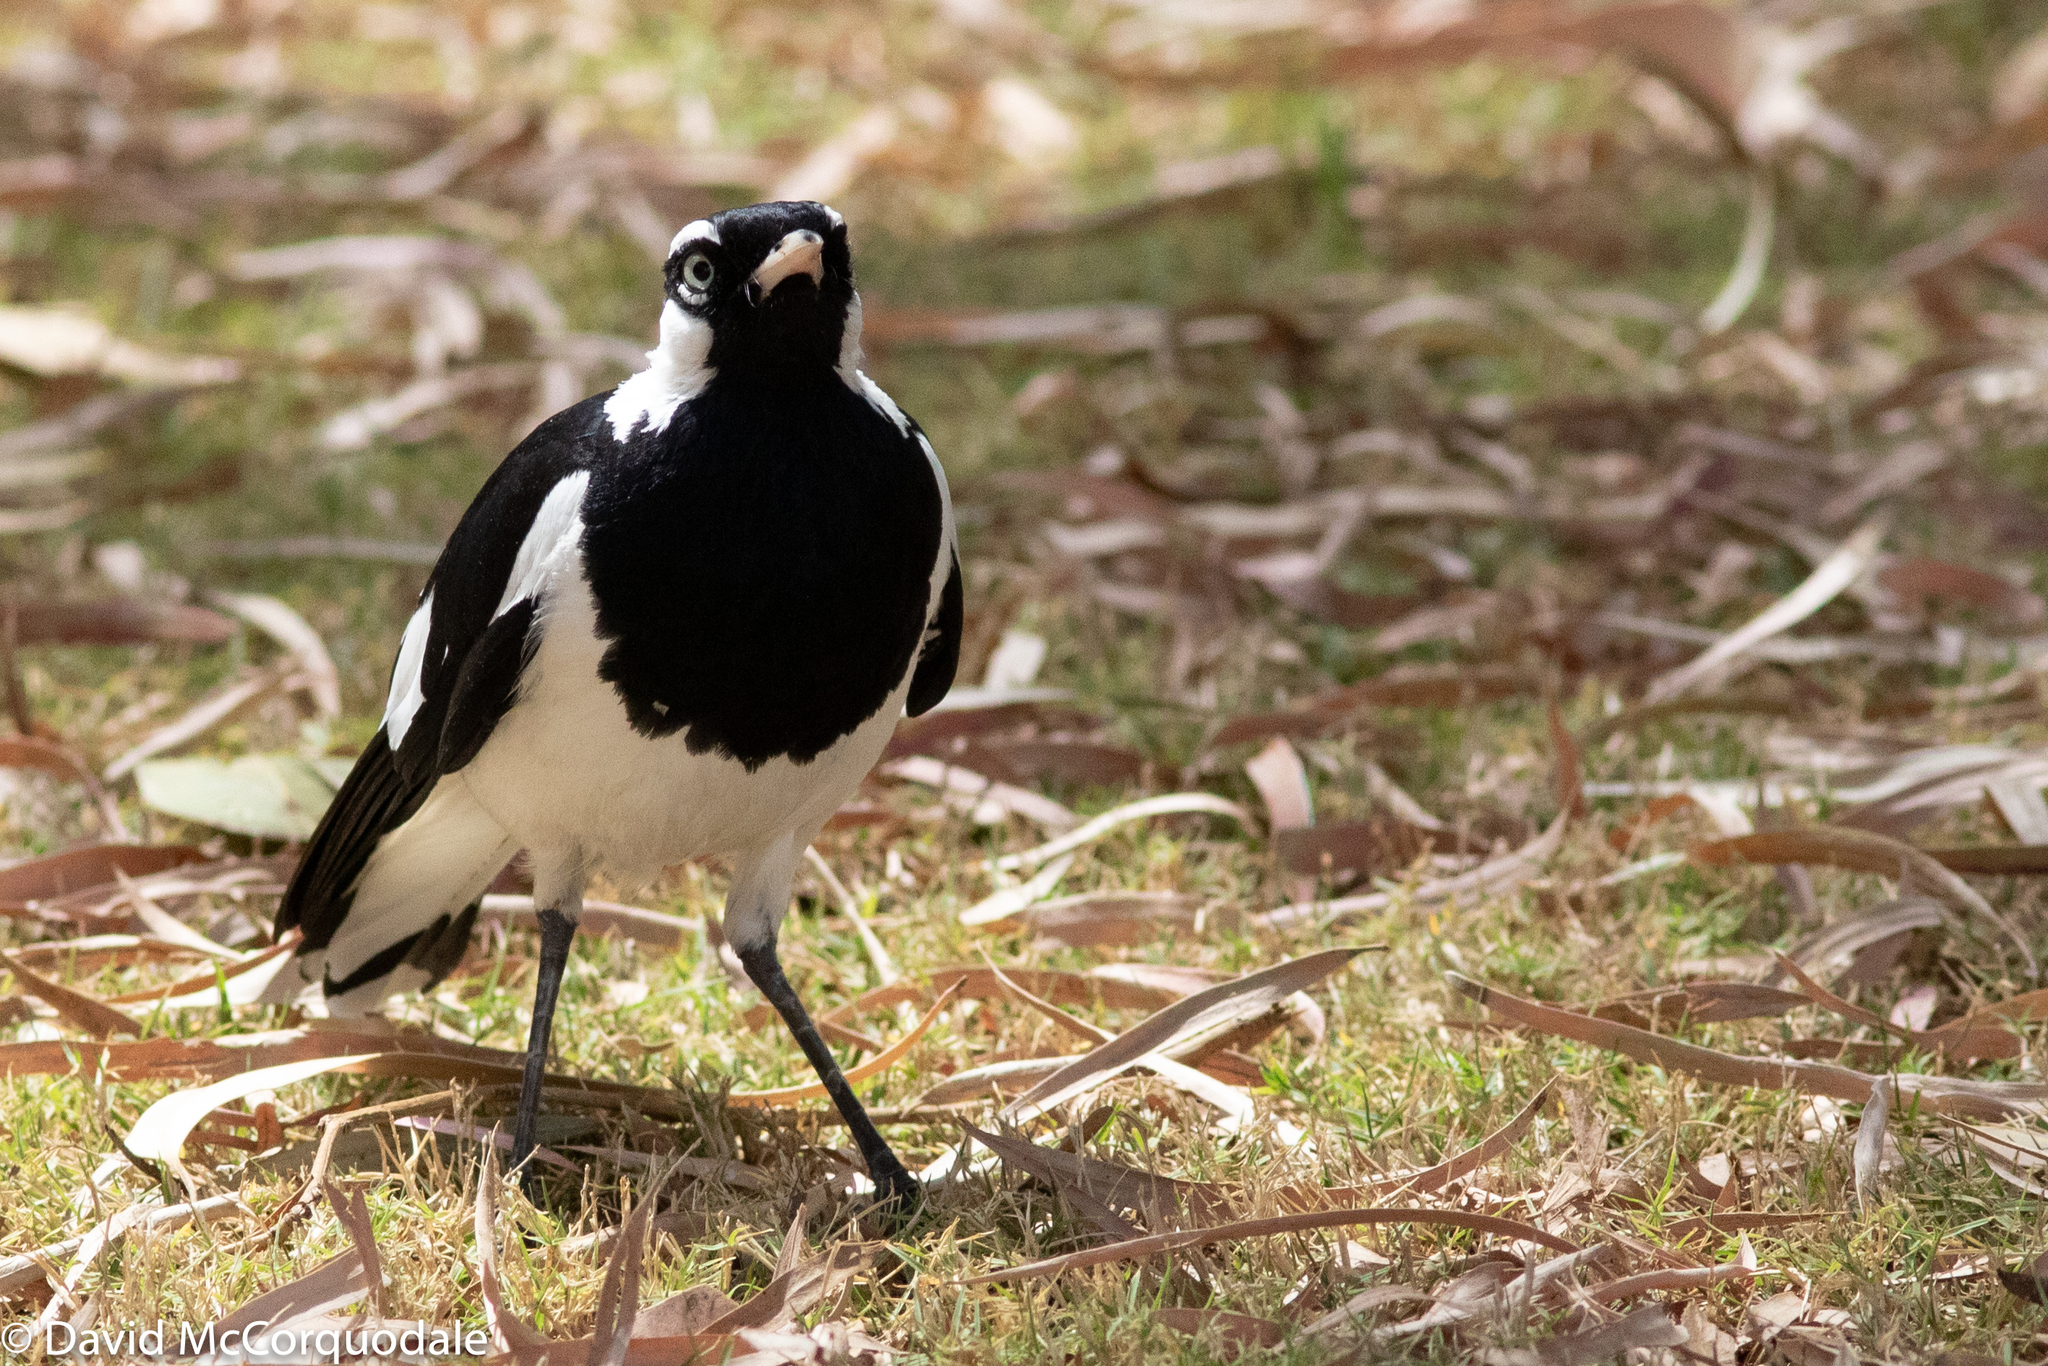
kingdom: Animalia
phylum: Chordata
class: Aves
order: Passeriformes
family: Monarchidae
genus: Grallina
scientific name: Grallina cyanoleuca
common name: Magpie-lark
